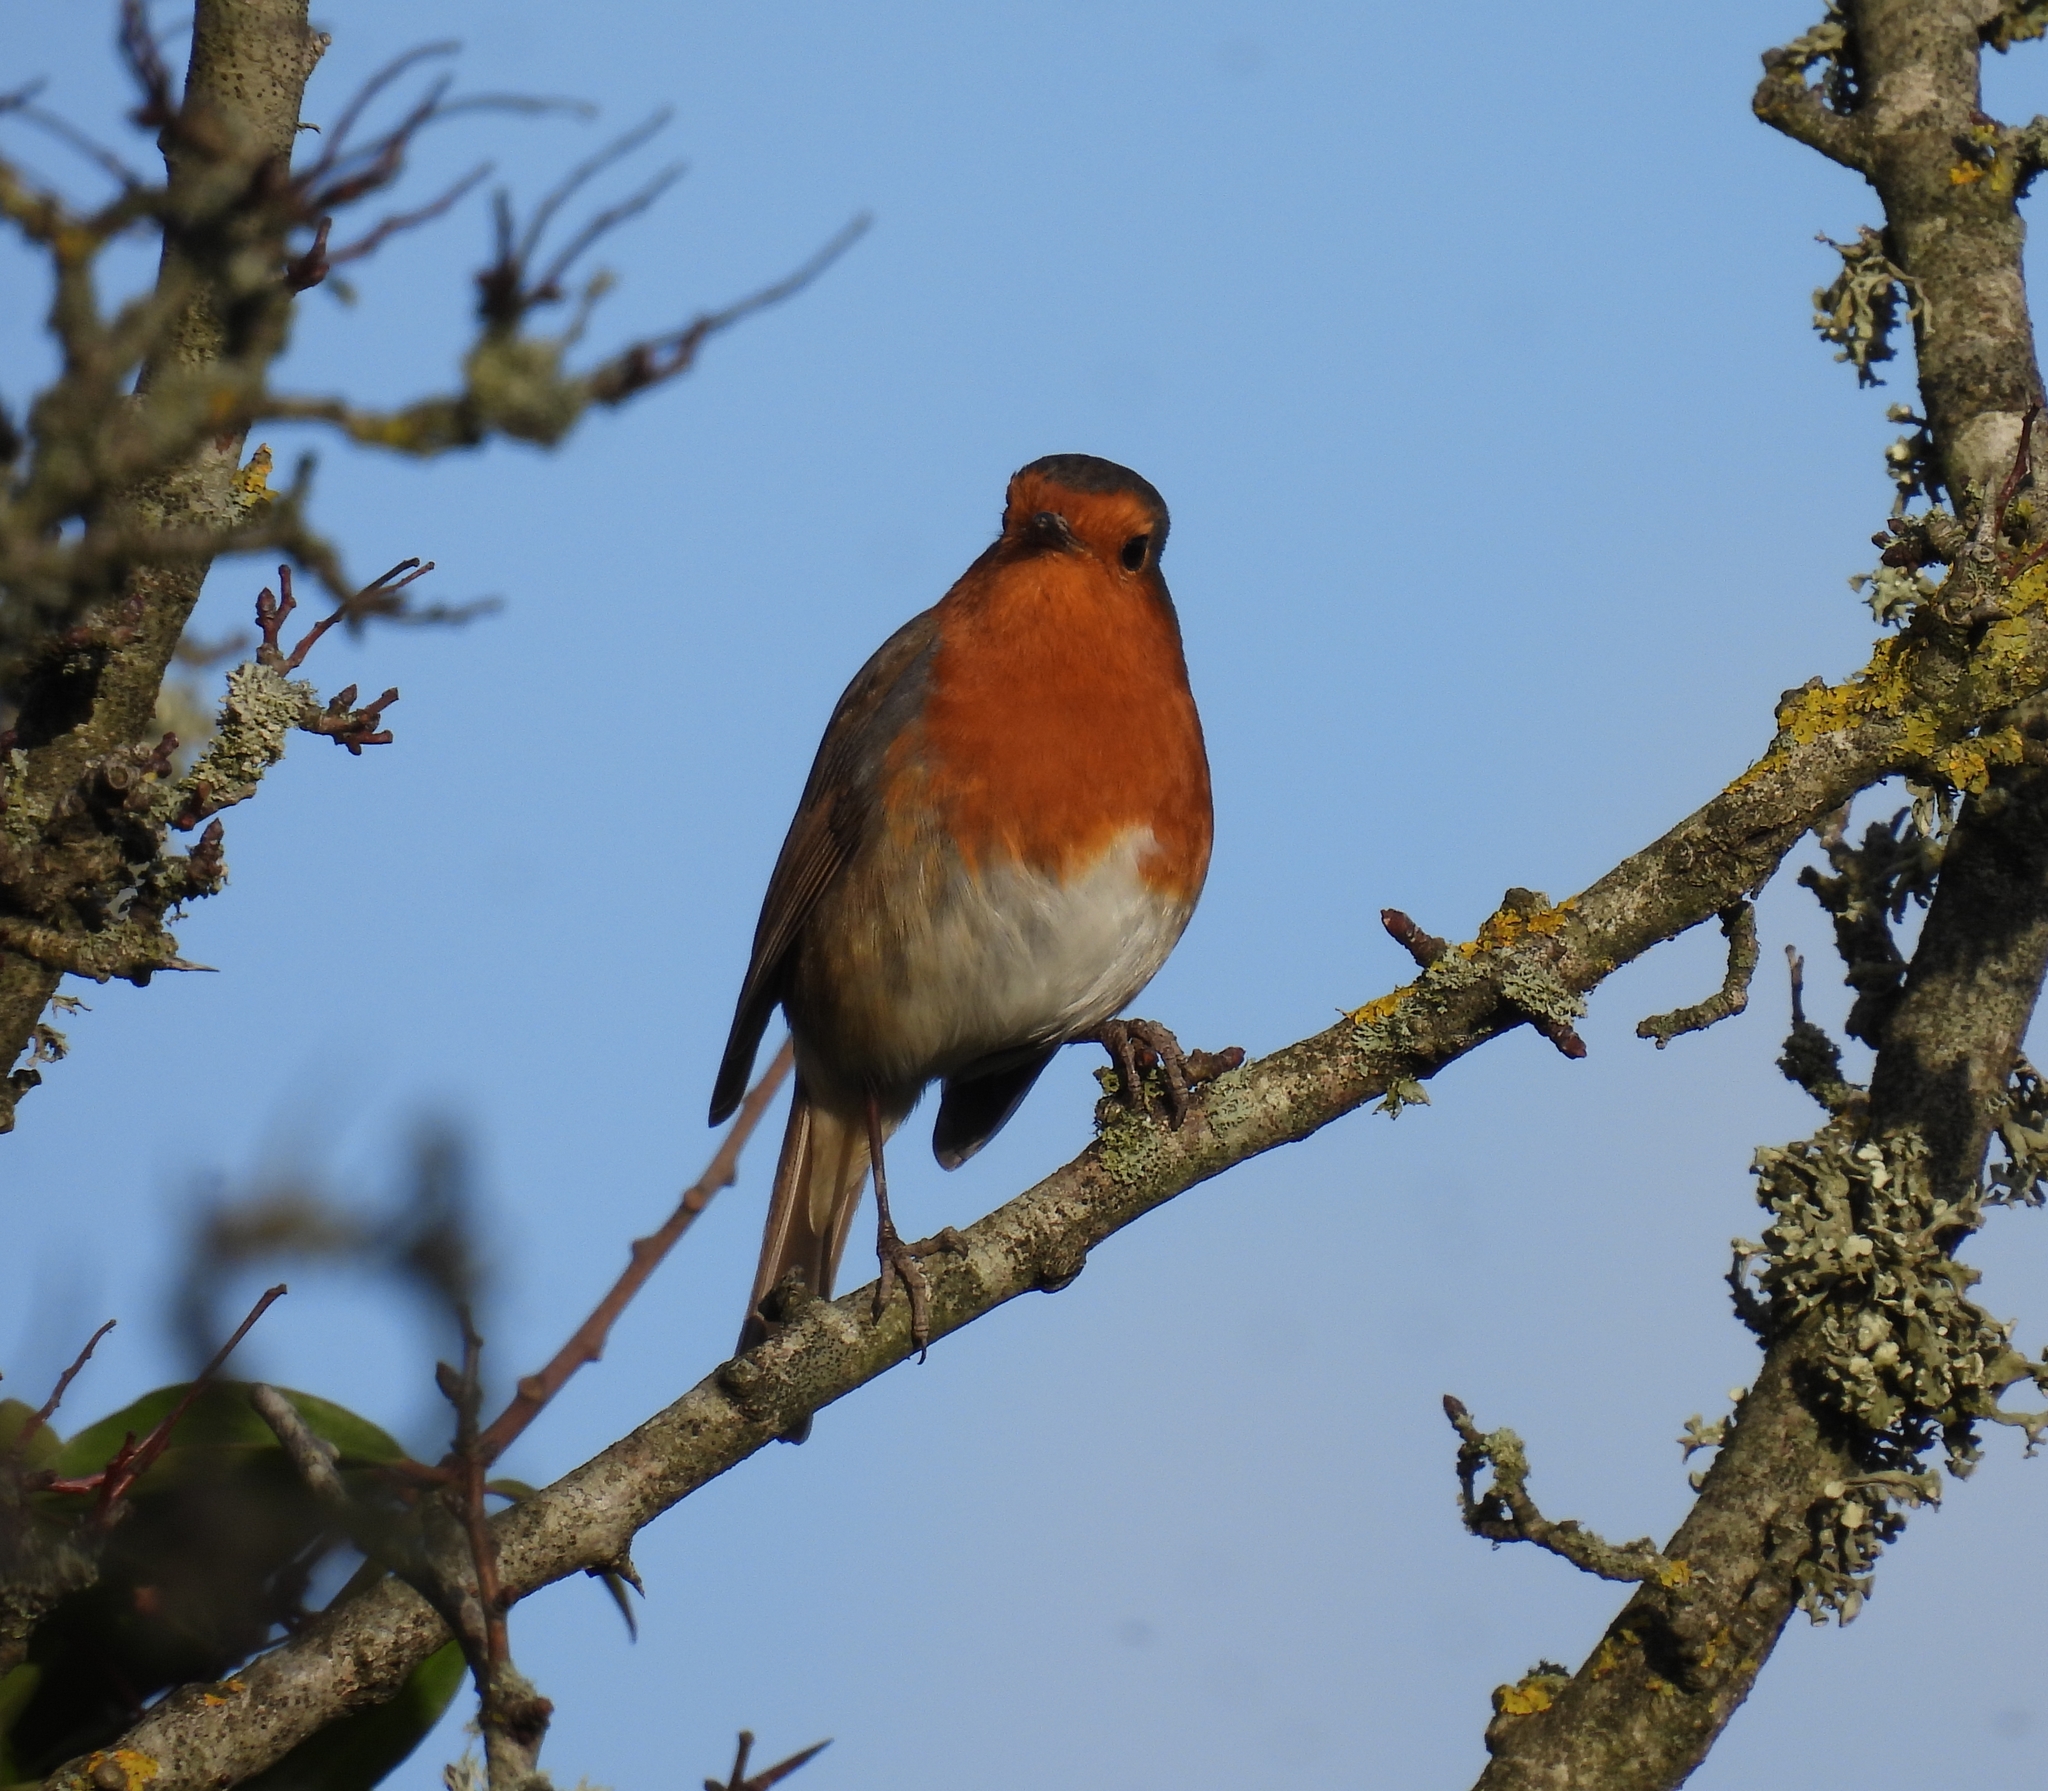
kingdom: Animalia
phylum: Chordata
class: Aves
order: Passeriformes
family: Muscicapidae
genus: Erithacus
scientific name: Erithacus rubecula
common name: European robin
